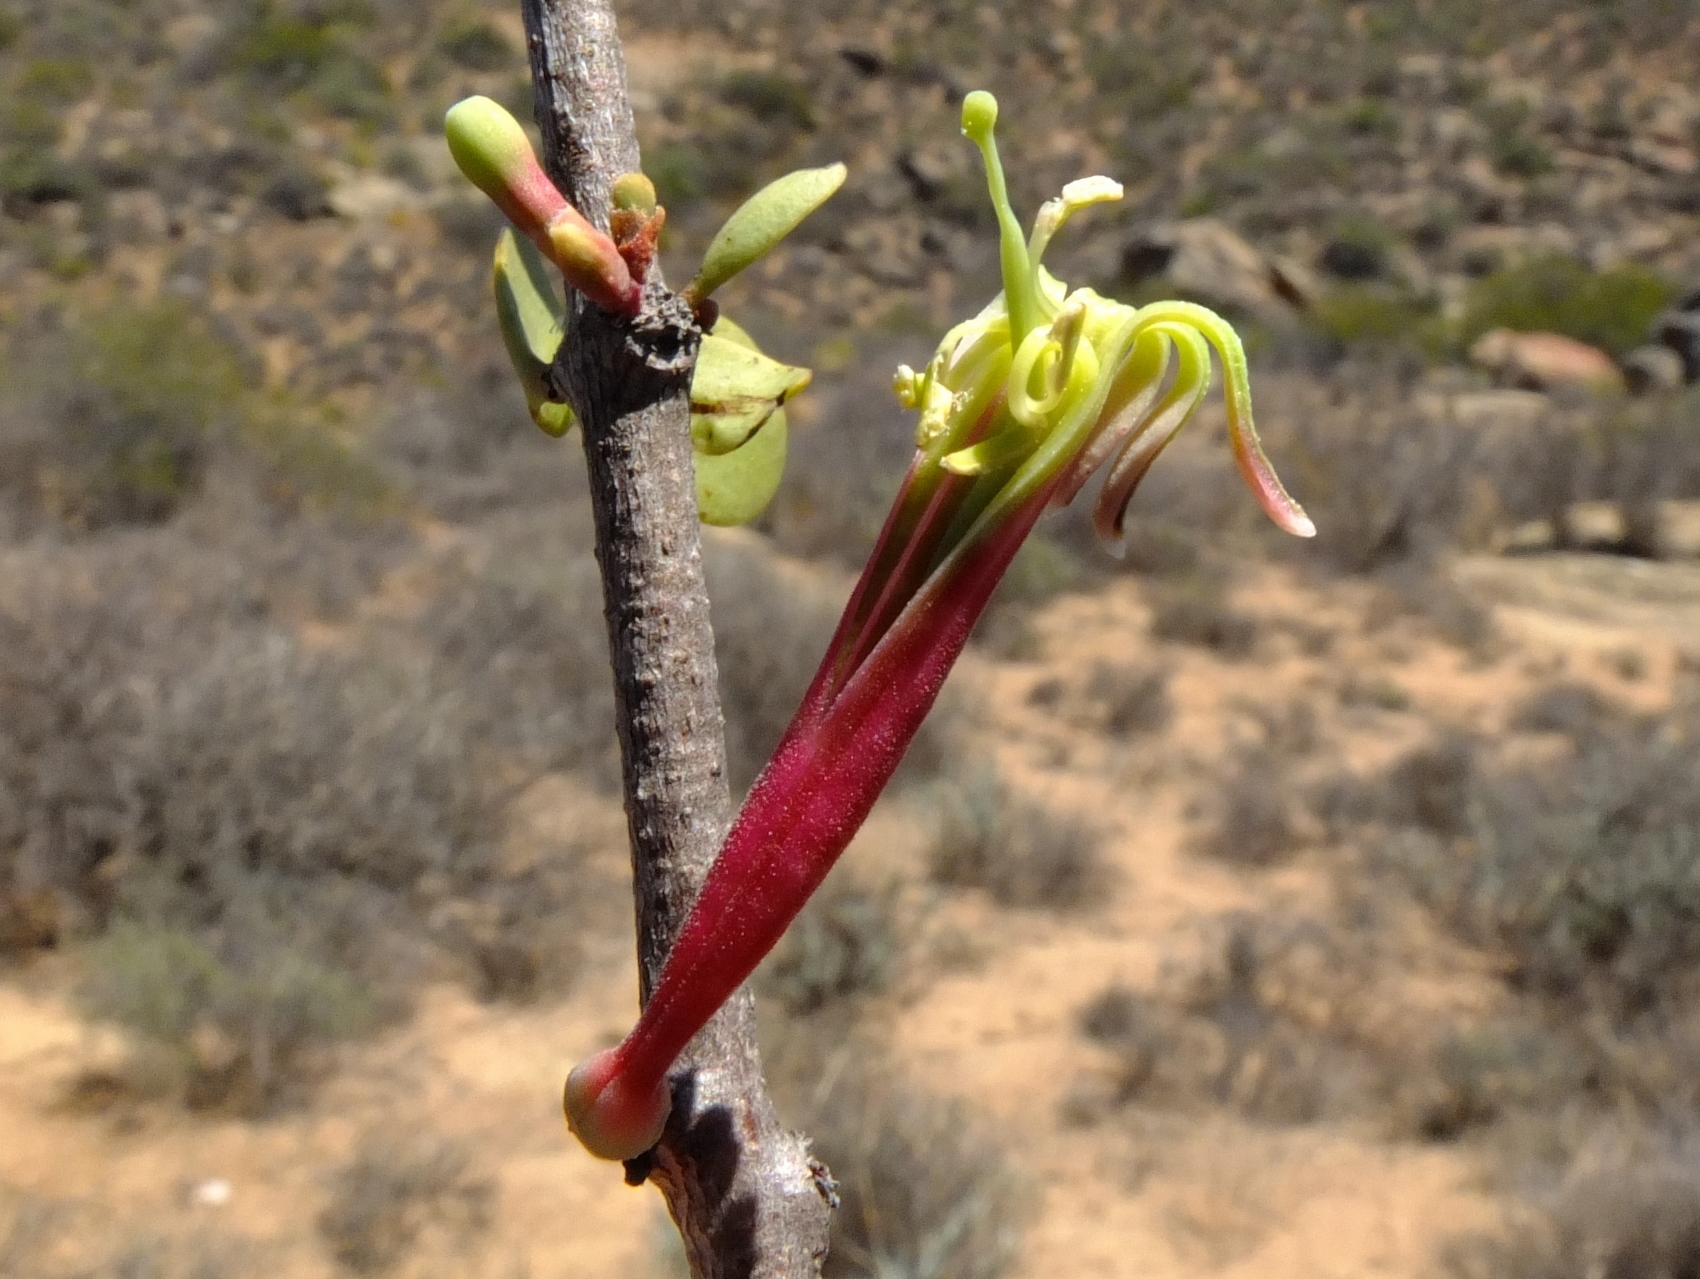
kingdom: Plantae
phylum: Tracheophyta
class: Magnoliopsida
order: Santalales
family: Loranthaceae
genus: Tapinanthus
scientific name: Tapinanthus oleifolius
